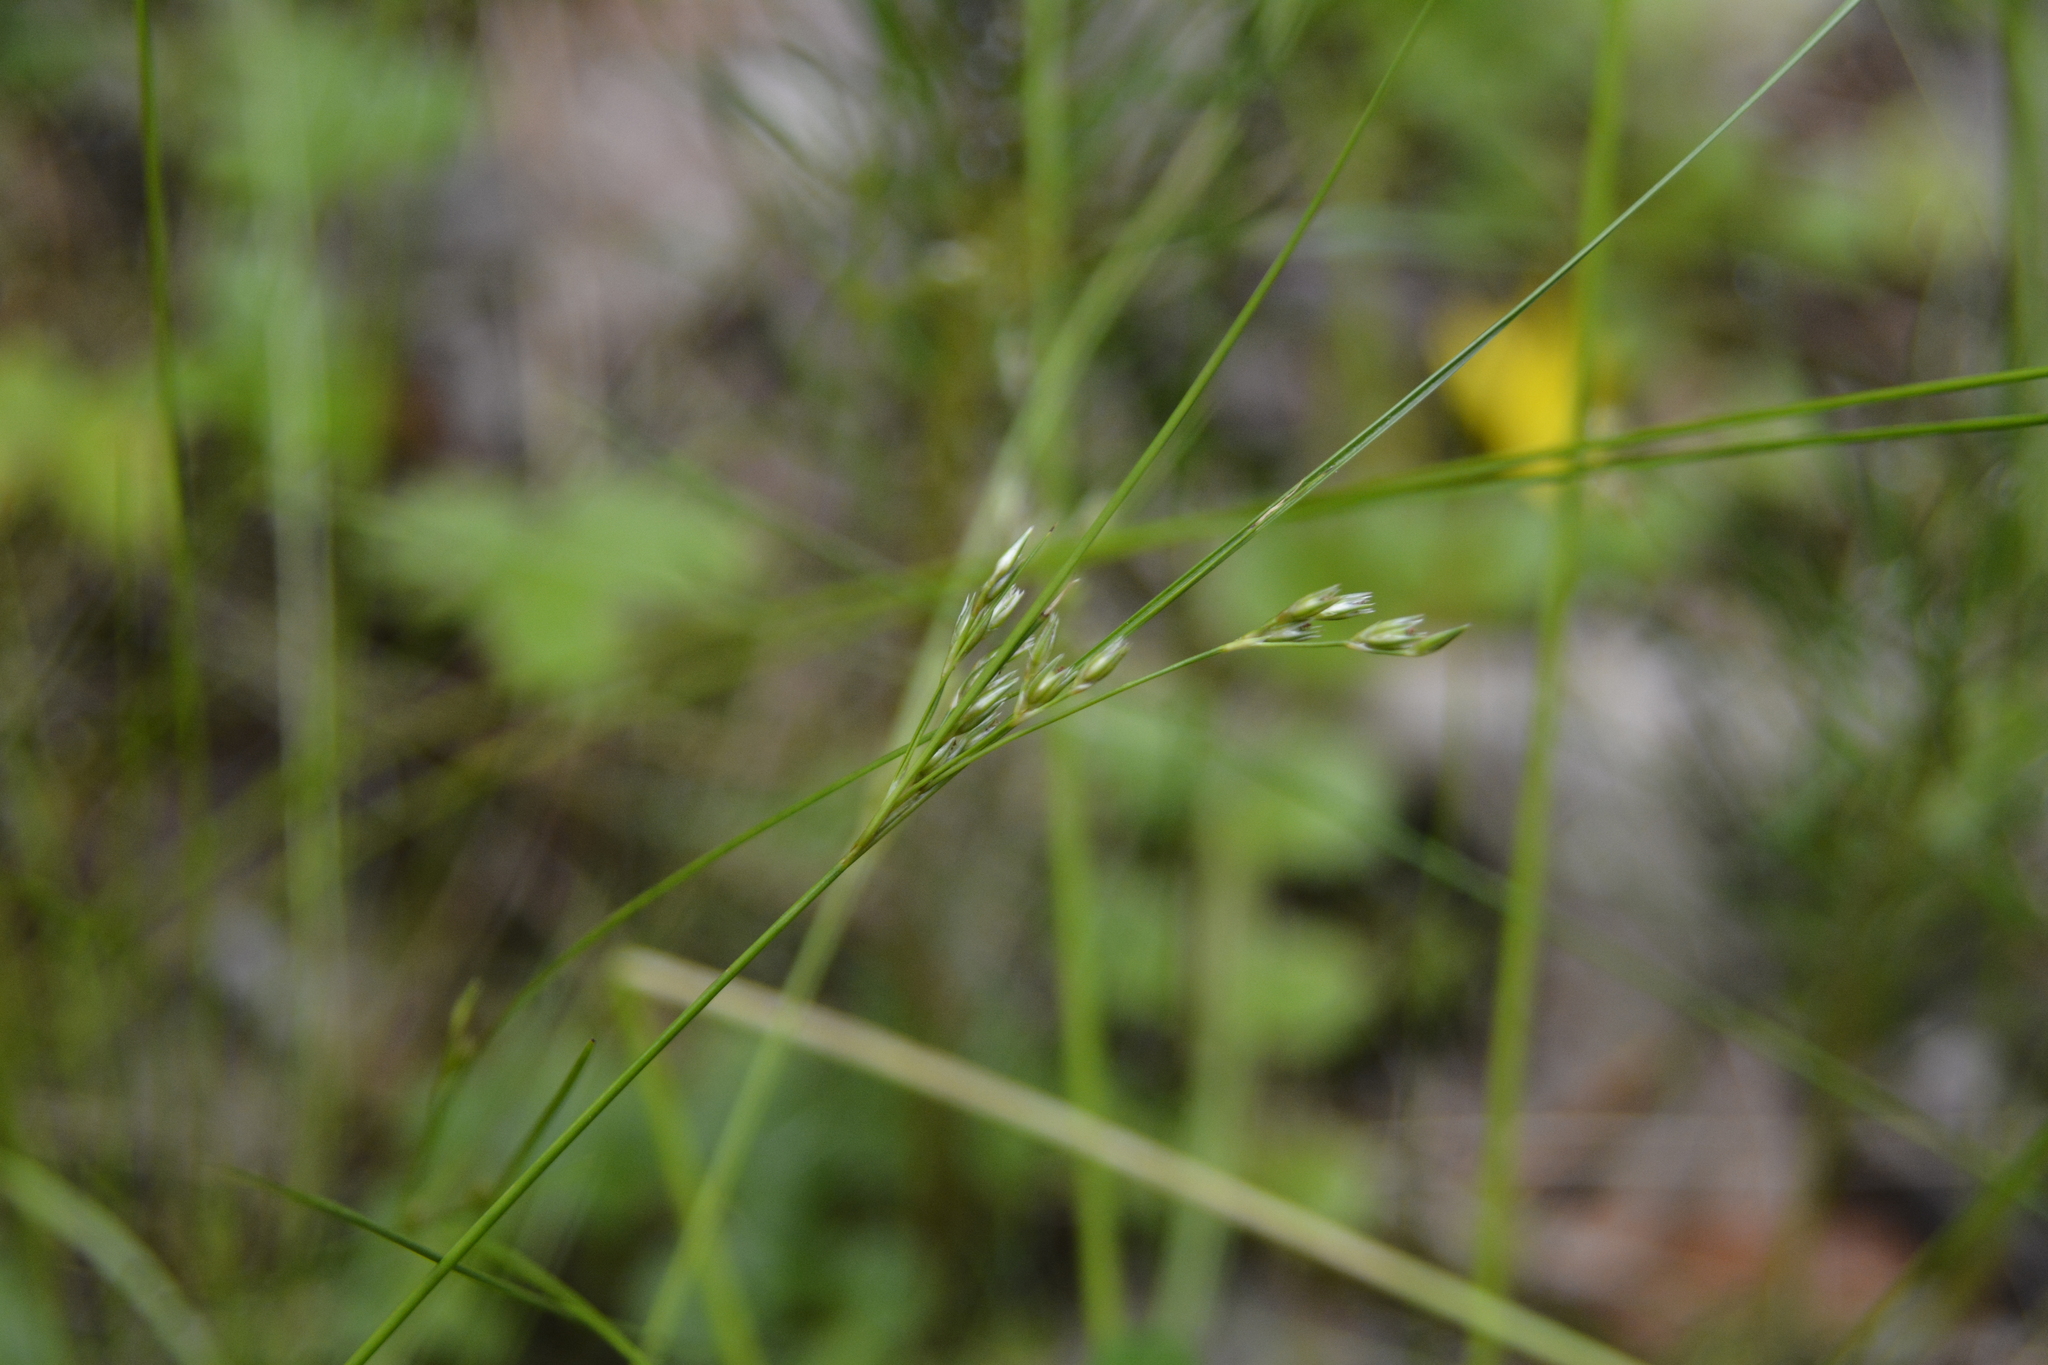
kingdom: Plantae
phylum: Tracheophyta
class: Liliopsida
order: Poales
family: Juncaceae
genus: Juncus
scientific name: Juncus tenuis
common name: Slender rush
